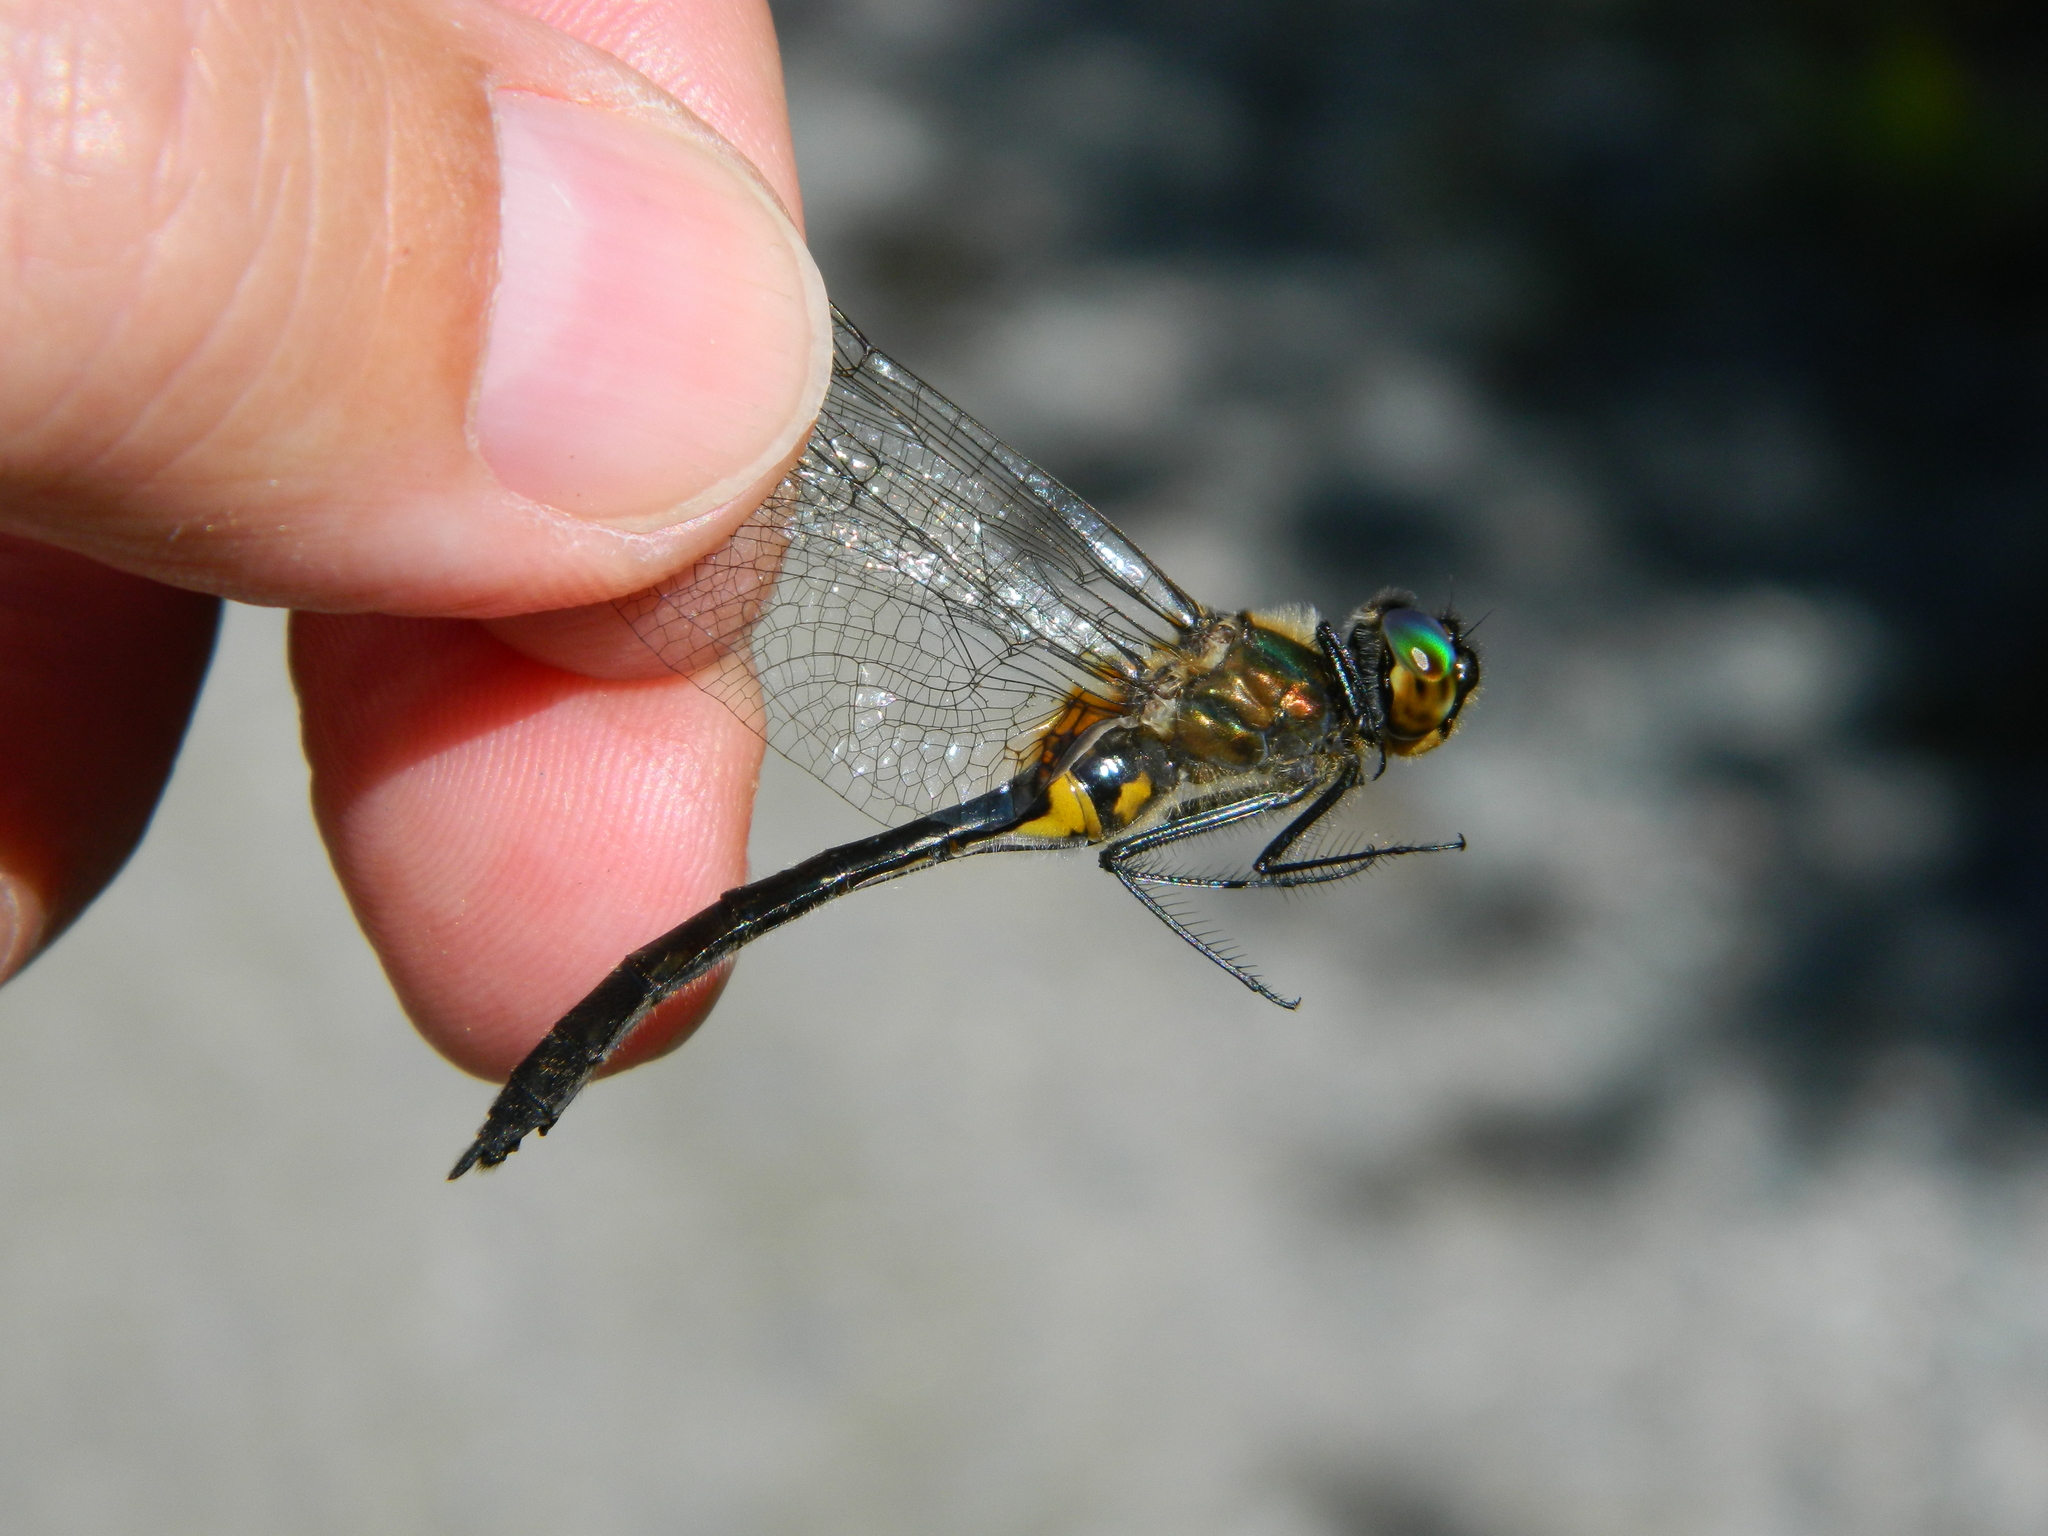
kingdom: Animalia
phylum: Arthropoda
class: Insecta
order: Odonata
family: Corduliidae
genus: Dorocordulia
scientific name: Dorocordulia libera
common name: Racket-tailed emerald
